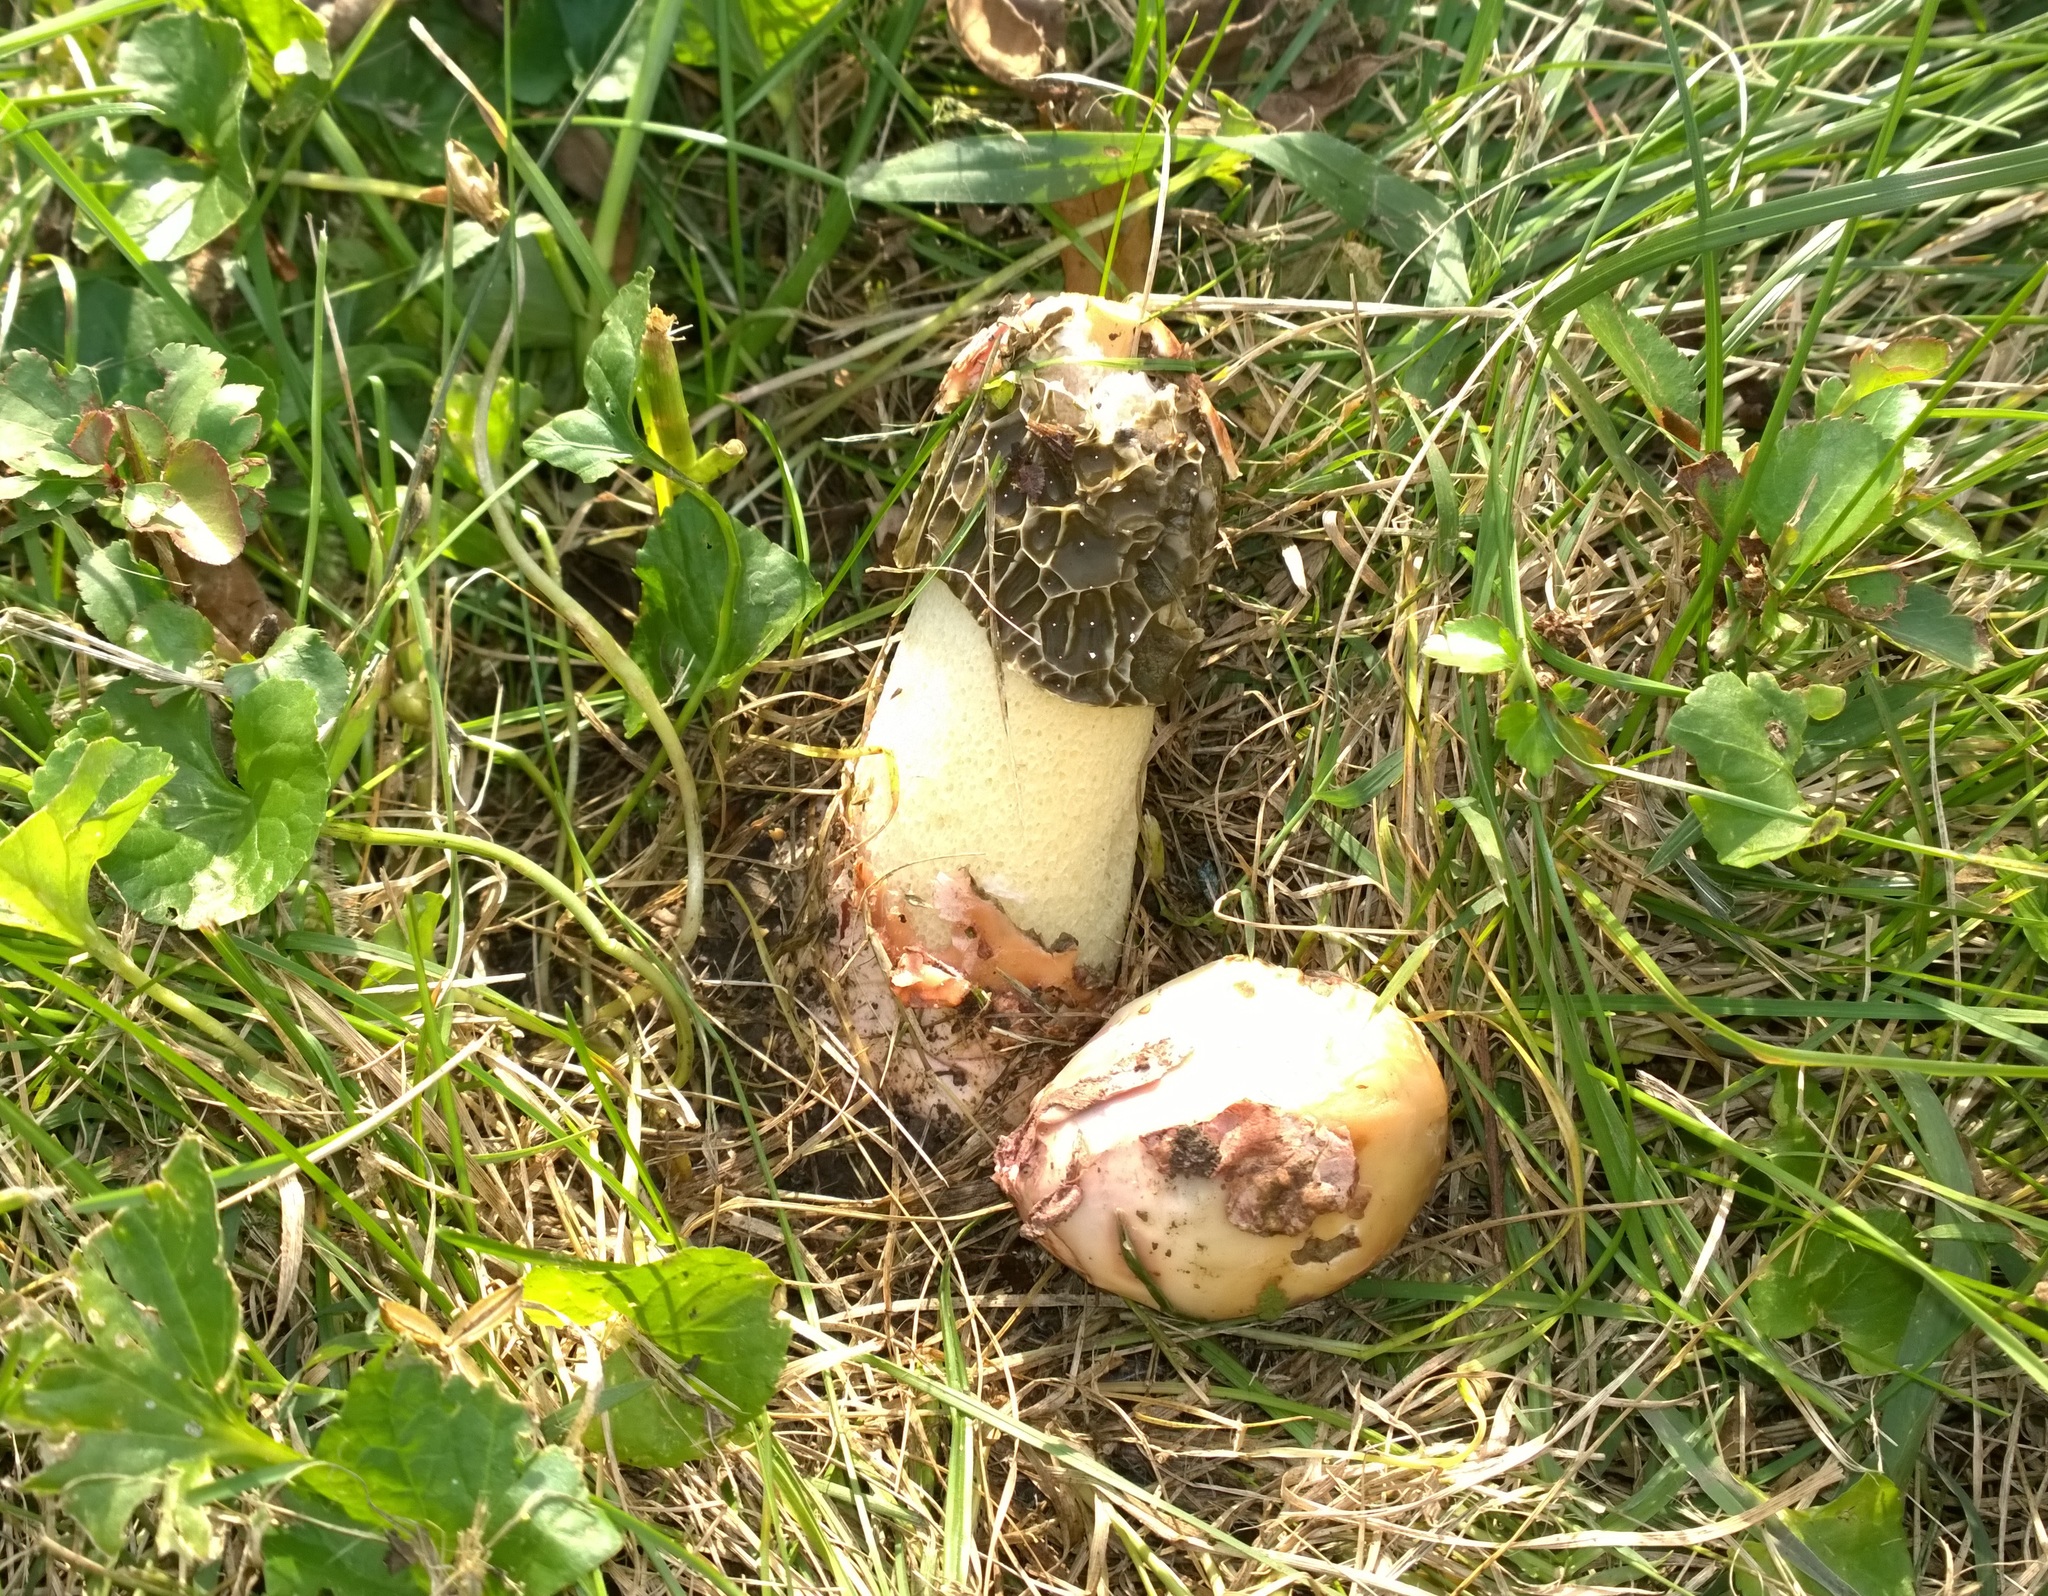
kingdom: Fungi
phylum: Basidiomycota
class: Agaricomycetes
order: Phallales
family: Phallaceae
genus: Phallus
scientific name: Phallus hadriani
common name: Sand stinkhorn
